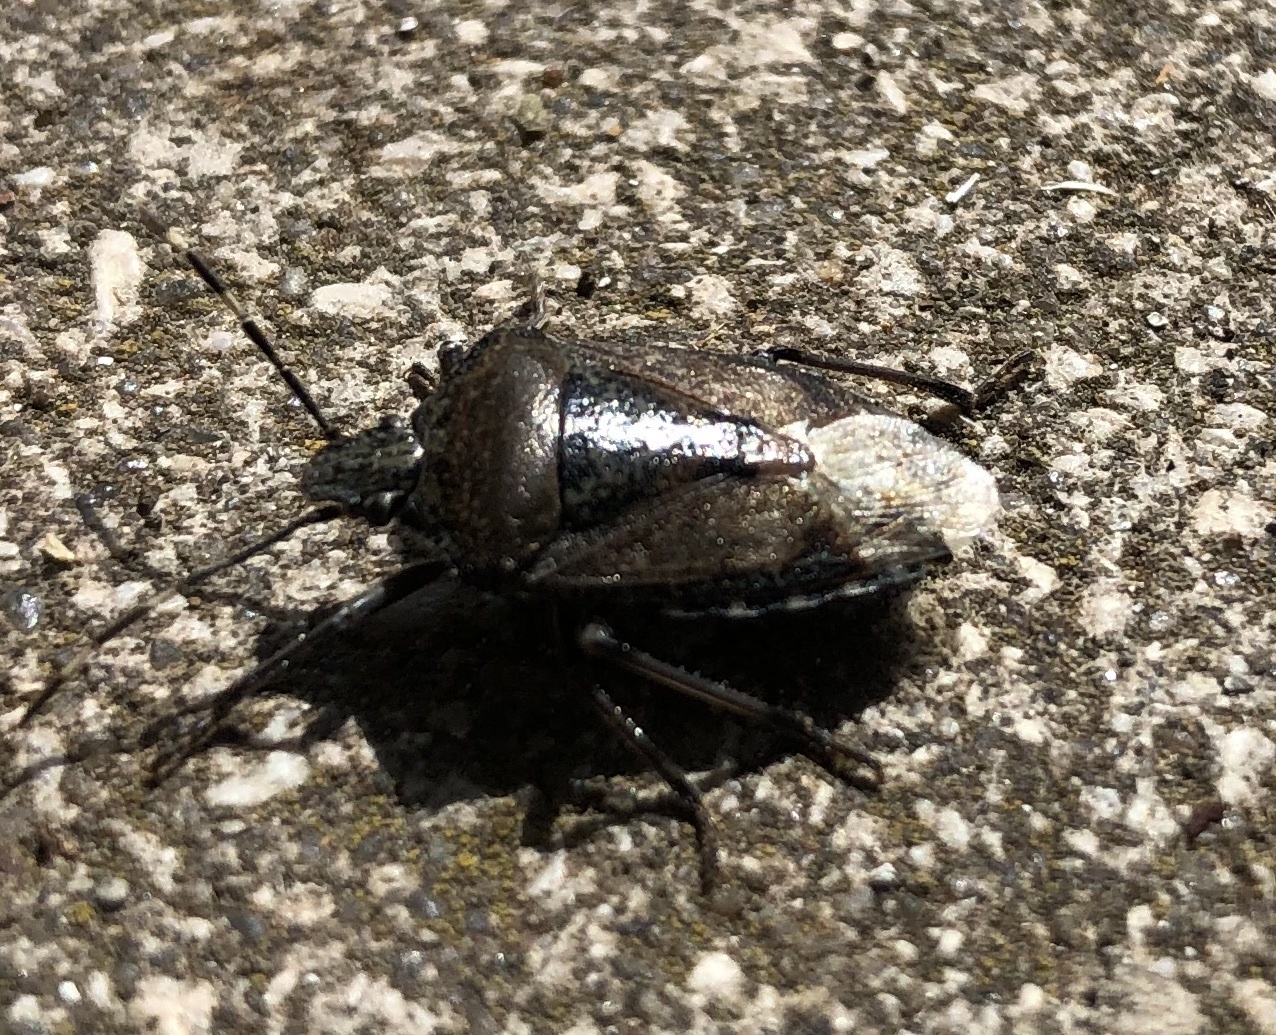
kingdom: Animalia
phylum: Arthropoda
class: Insecta
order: Hemiptera
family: Pentatomidae
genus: Rhaphigaster
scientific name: Rhaphigaster nebulosa
